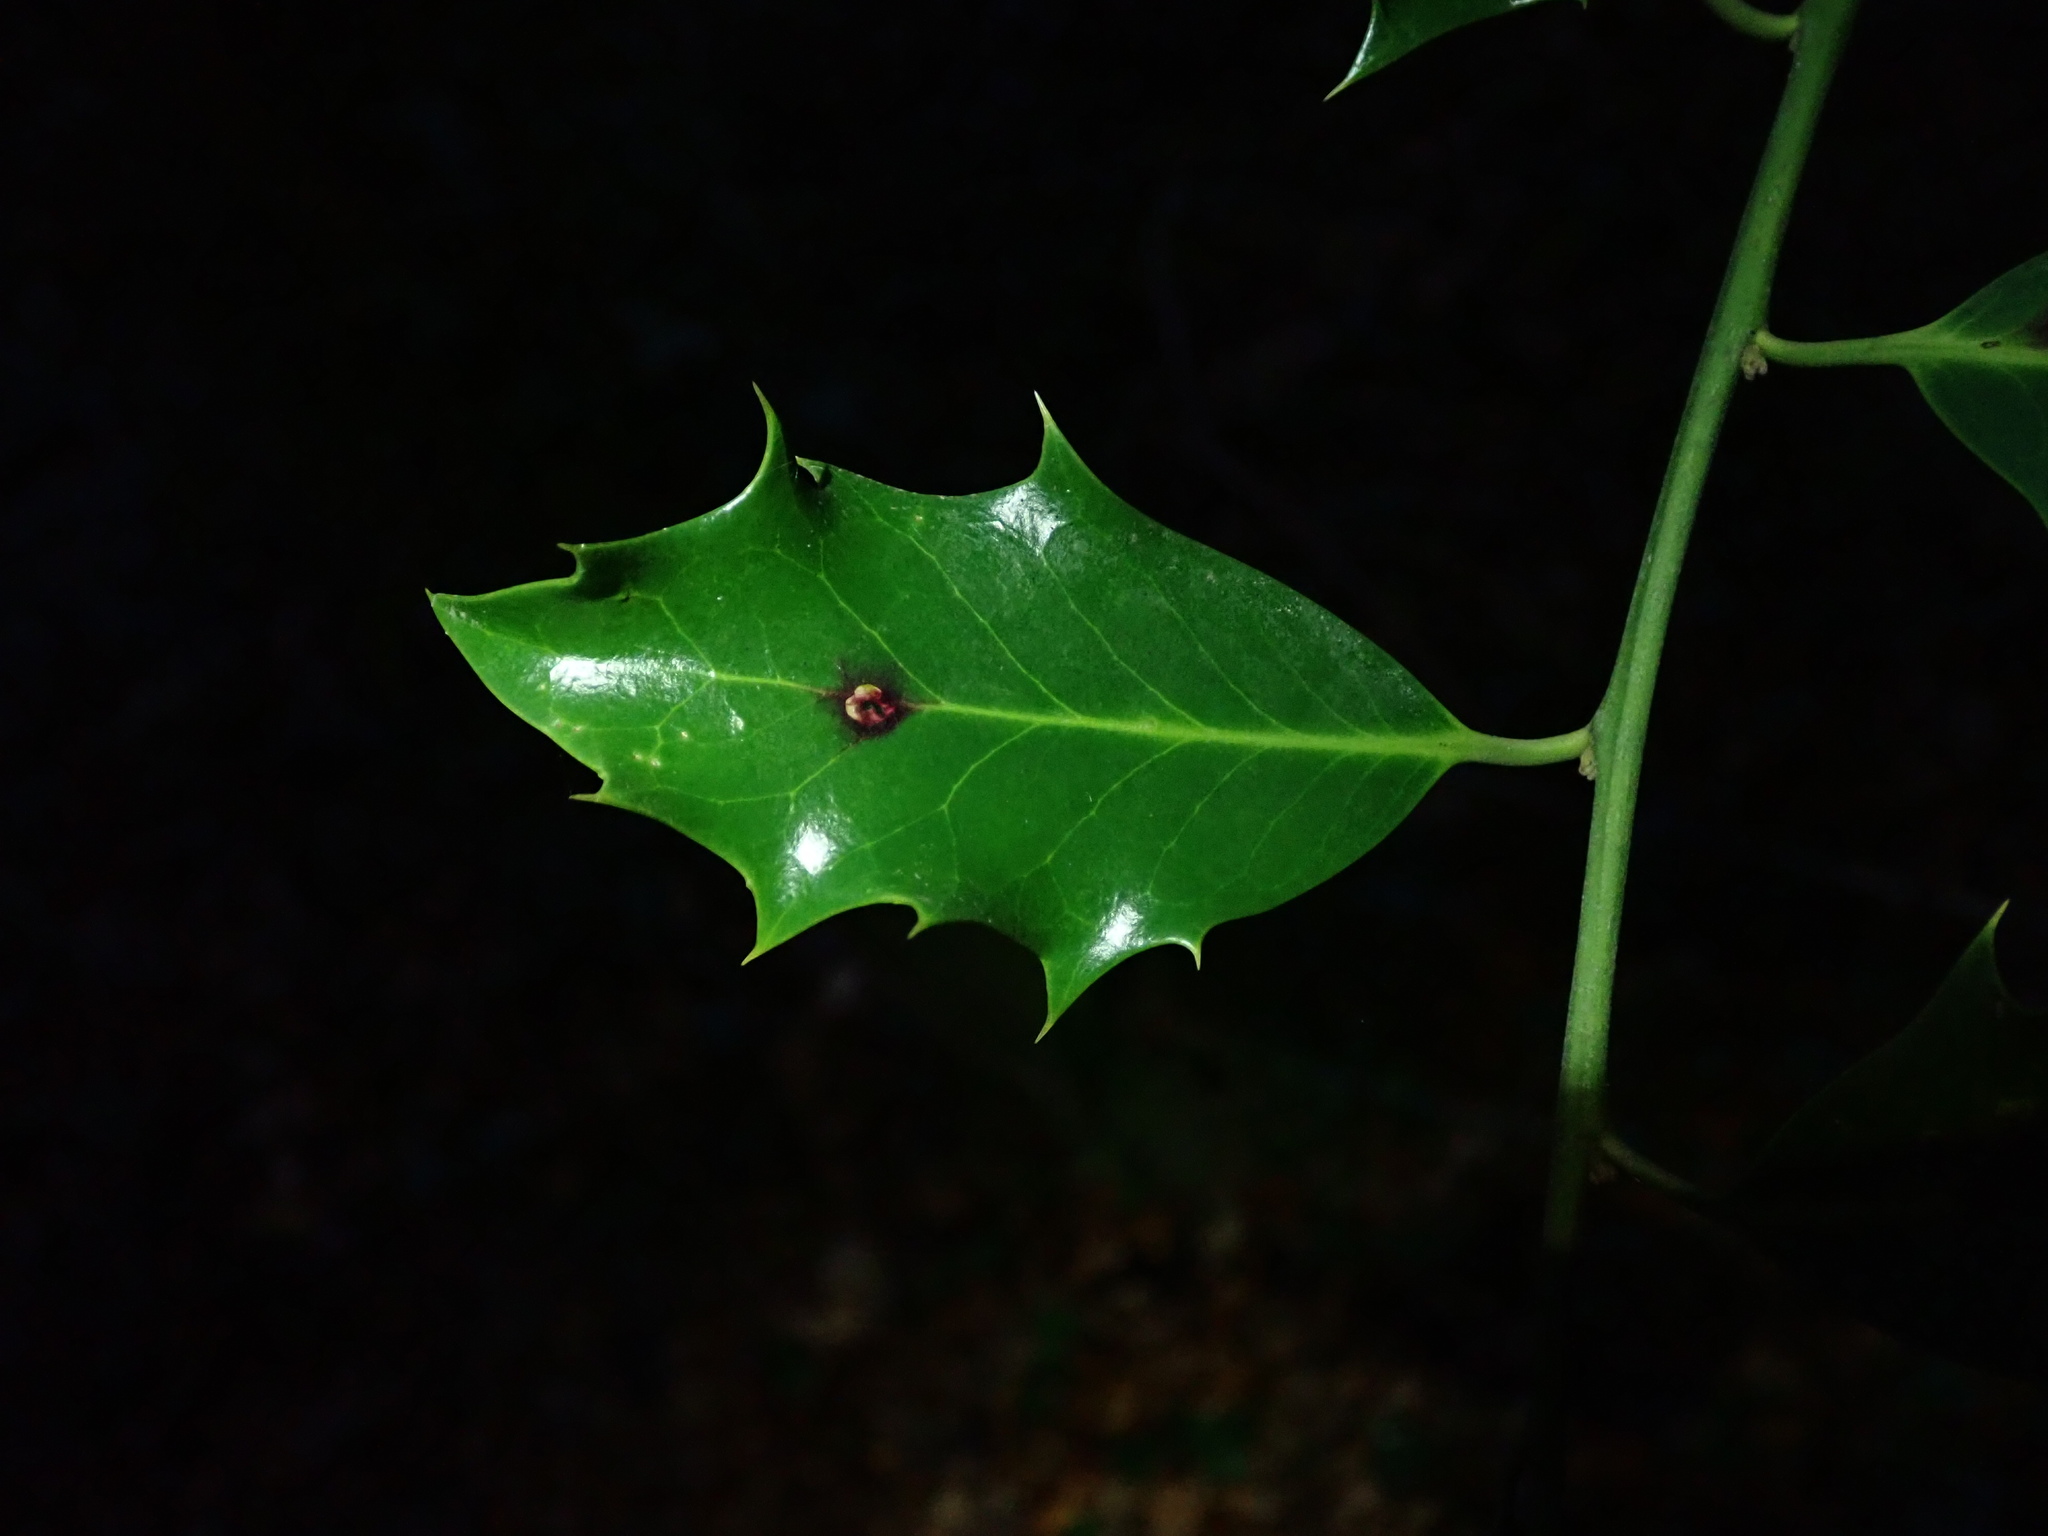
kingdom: Animalia
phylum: Arthropoda
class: Insecta
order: Diptera
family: Agromyzidae
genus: Phytomyza
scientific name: Phytomyza ilicis
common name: Holly leafminer
